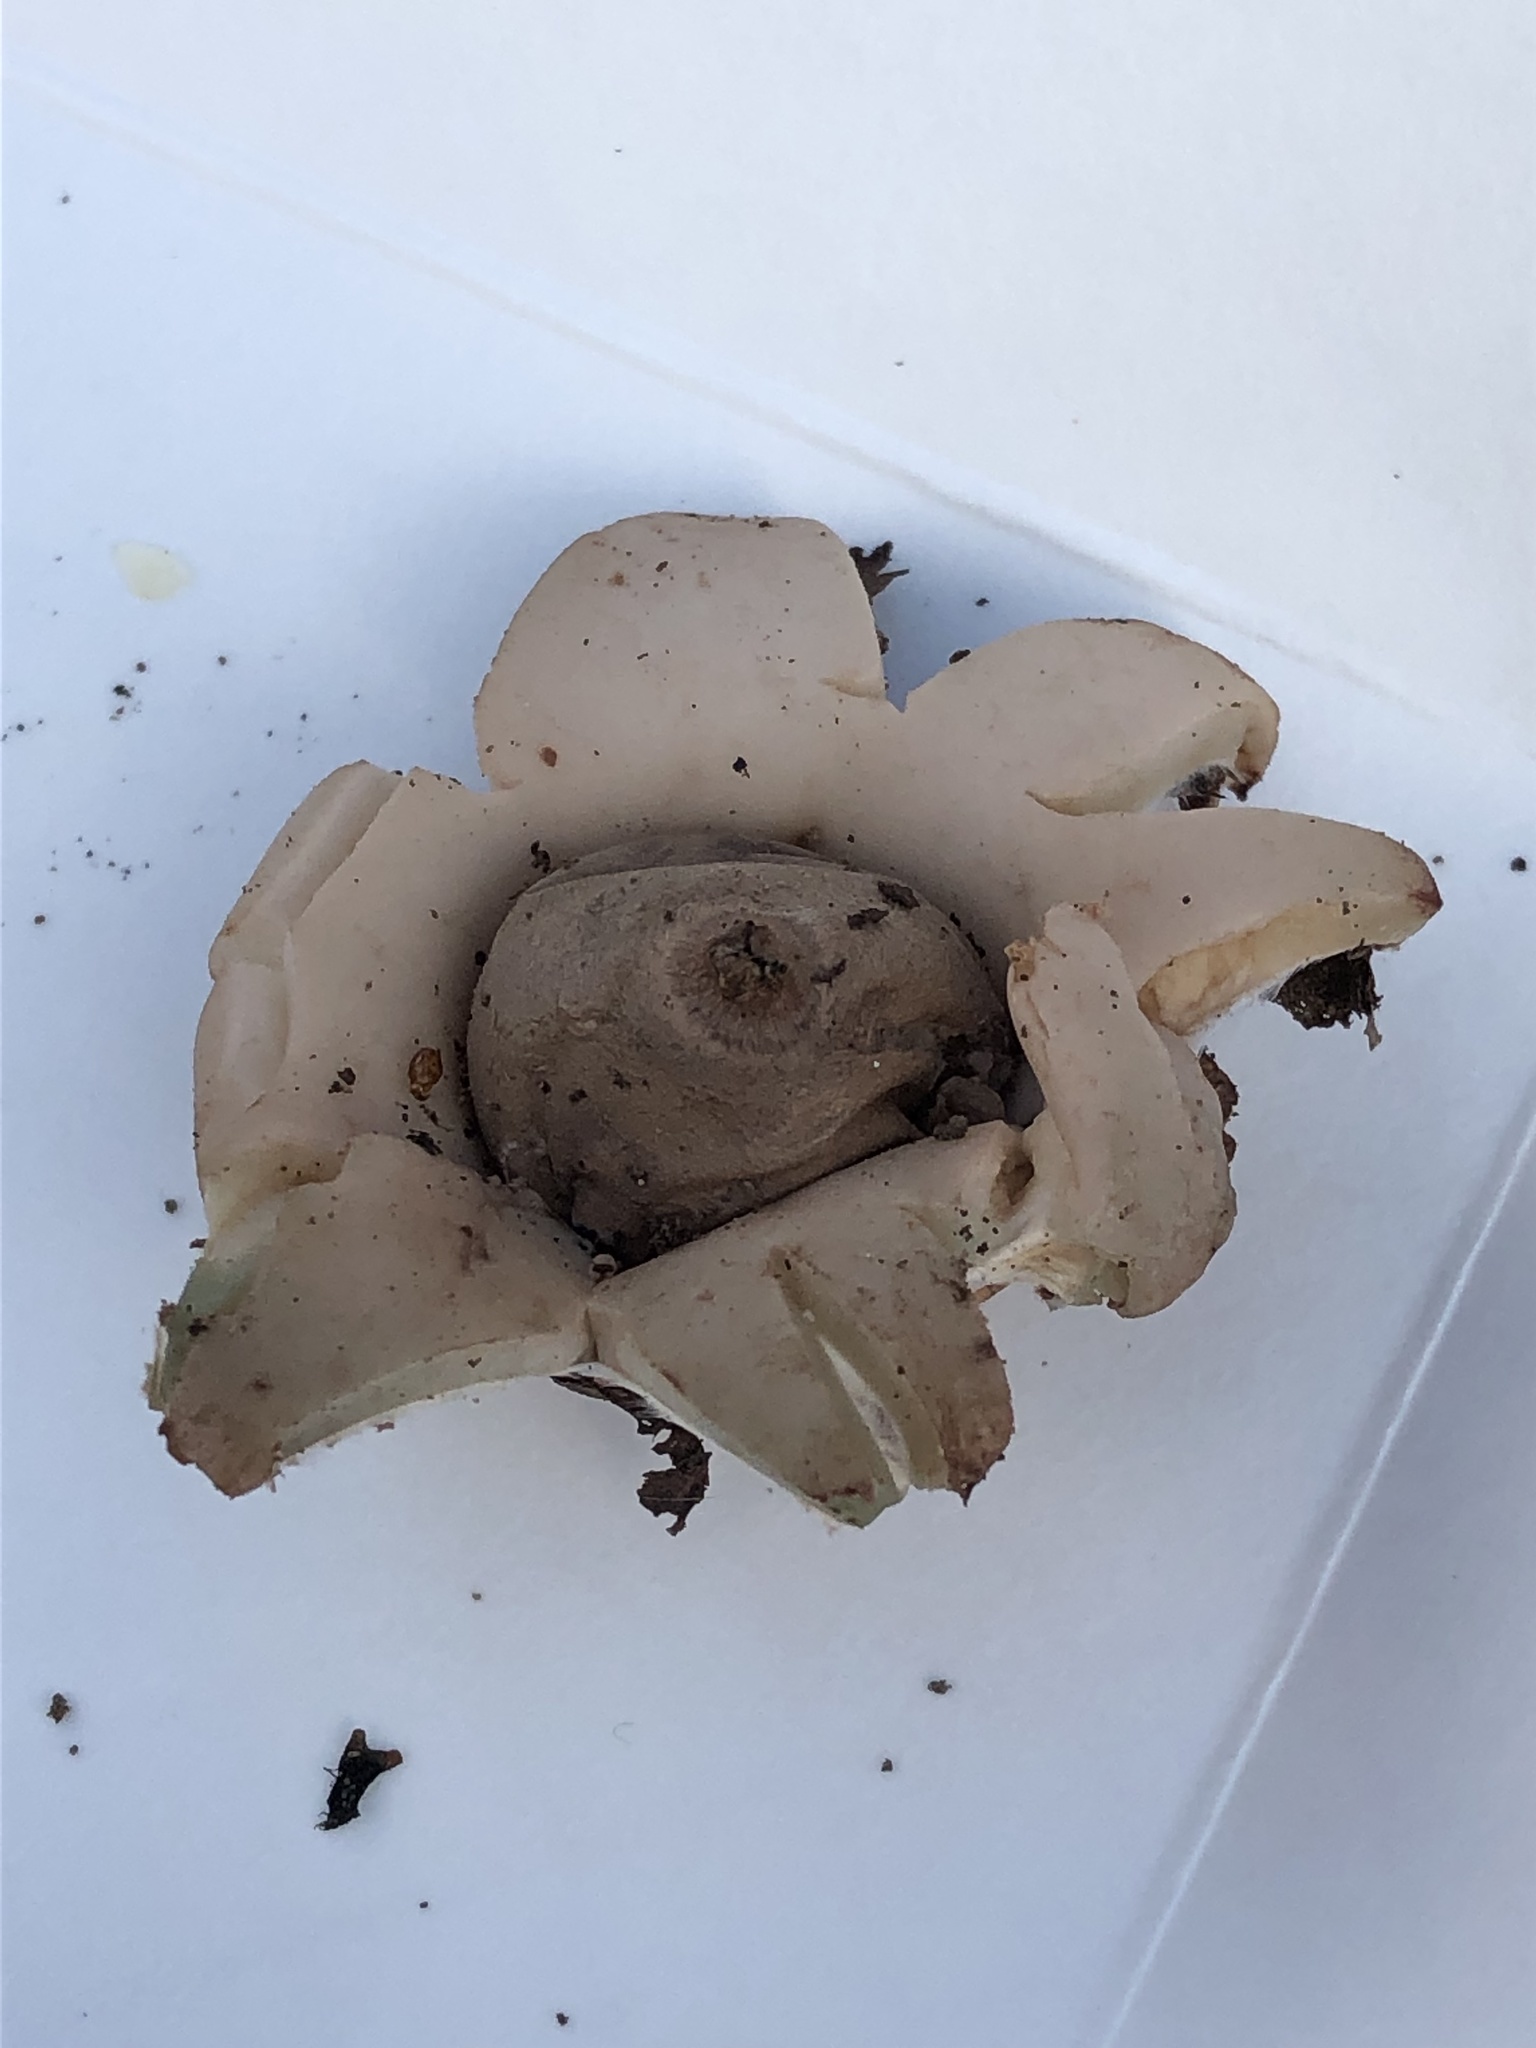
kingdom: Fungi
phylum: Basidiomycota
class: Agaricomycetes
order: Geastrales
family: Geastraceae
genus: Geastrum
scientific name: Geastrum saccatum
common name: Rounded earthstar
